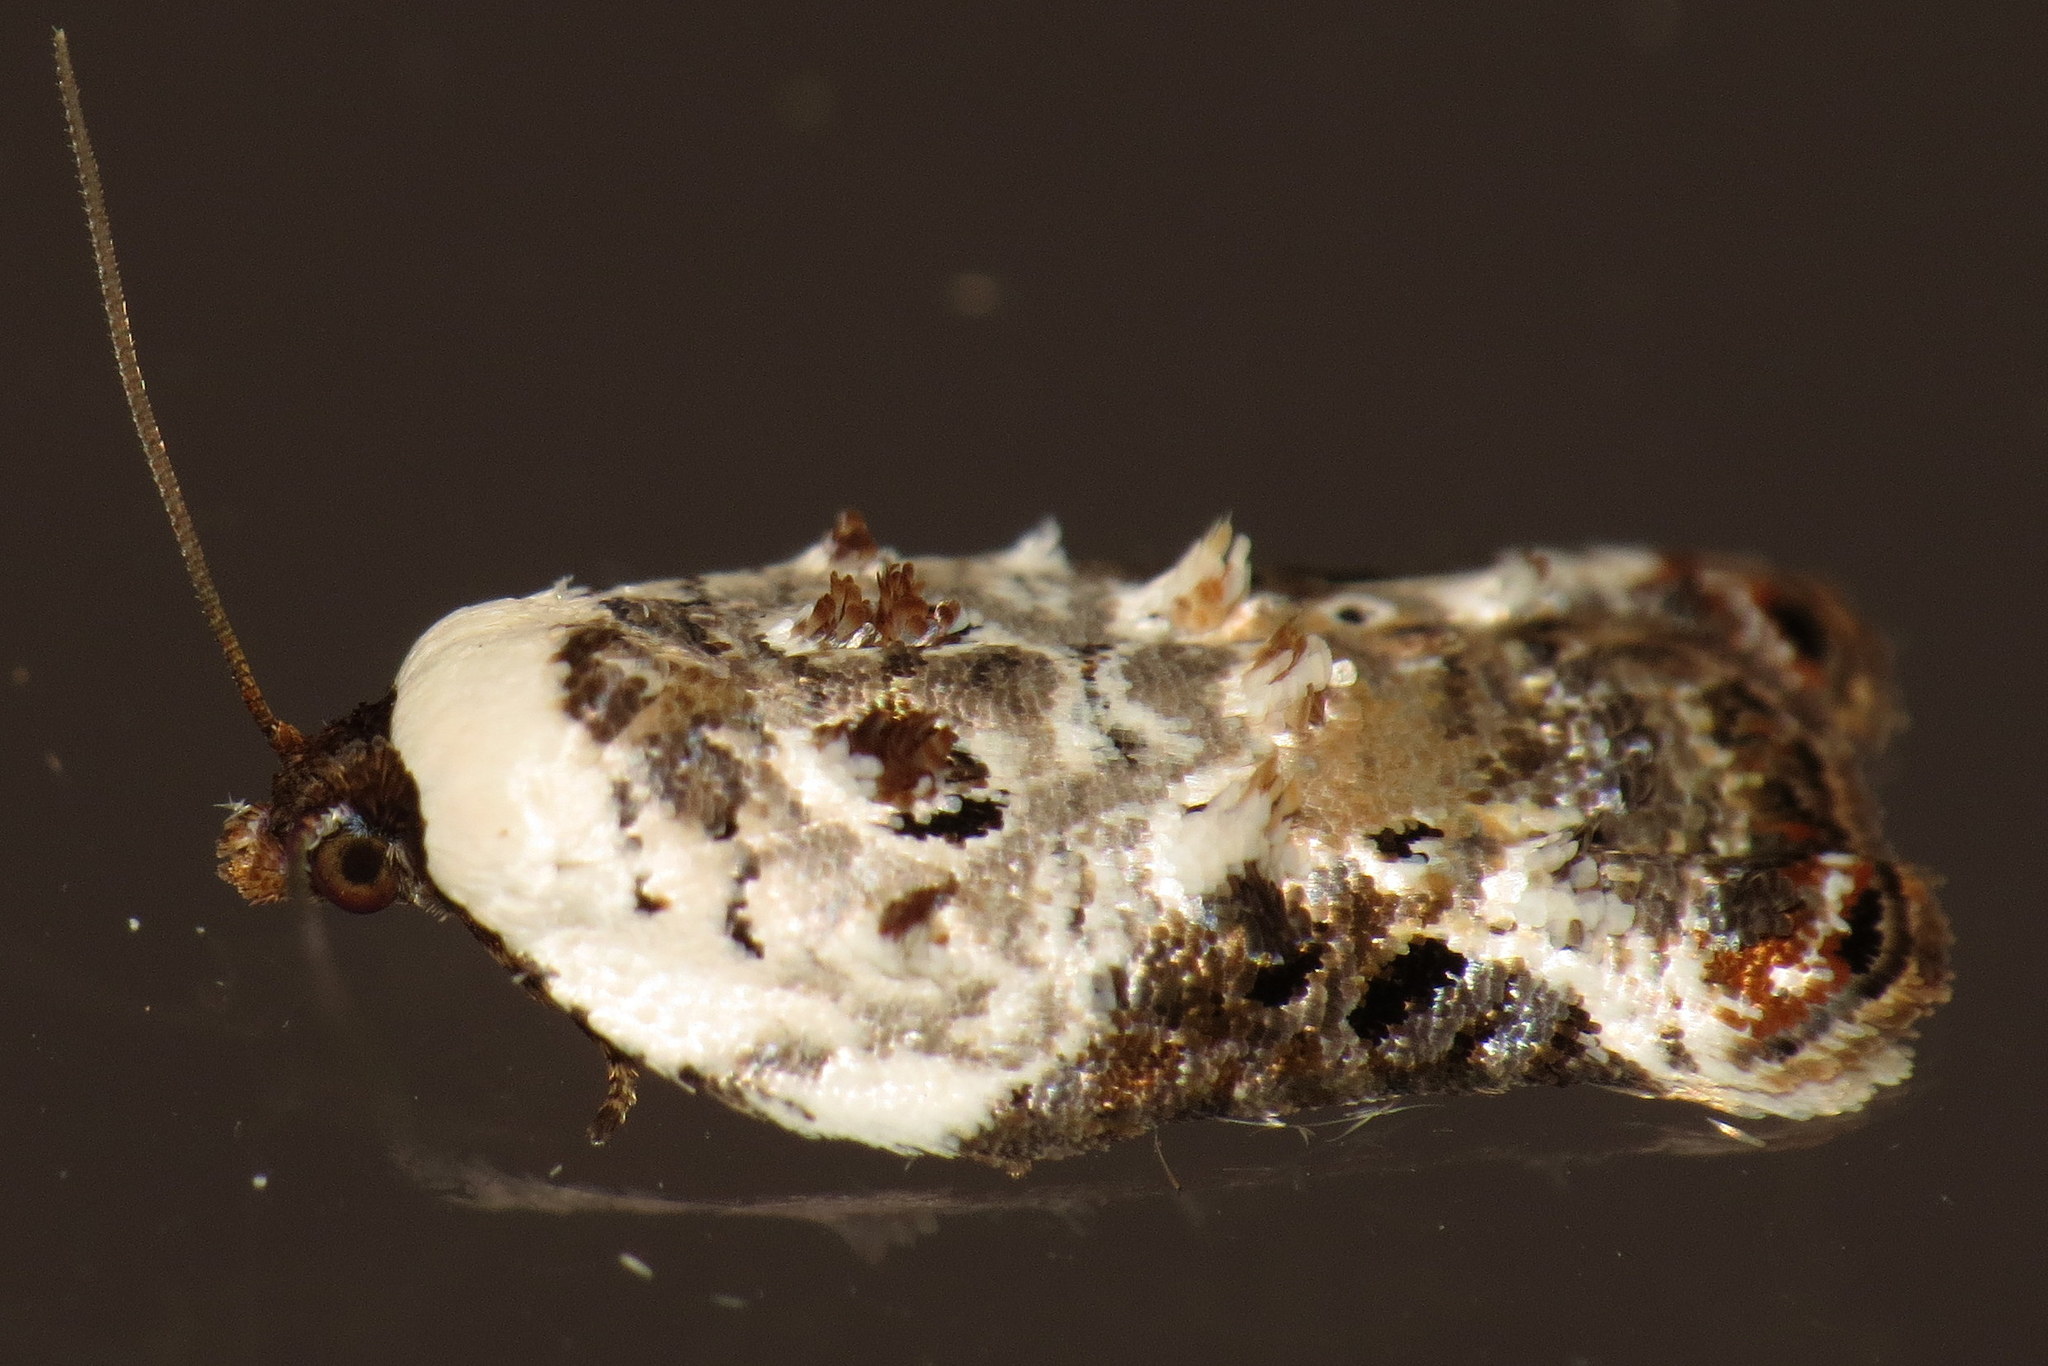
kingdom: Animalia
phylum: Arthropoda
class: Insecta
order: Lepidoptera
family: Tortricidae
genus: Acleris
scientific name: Acleris nivisellana
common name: Snowy-shouldered acleris moth
